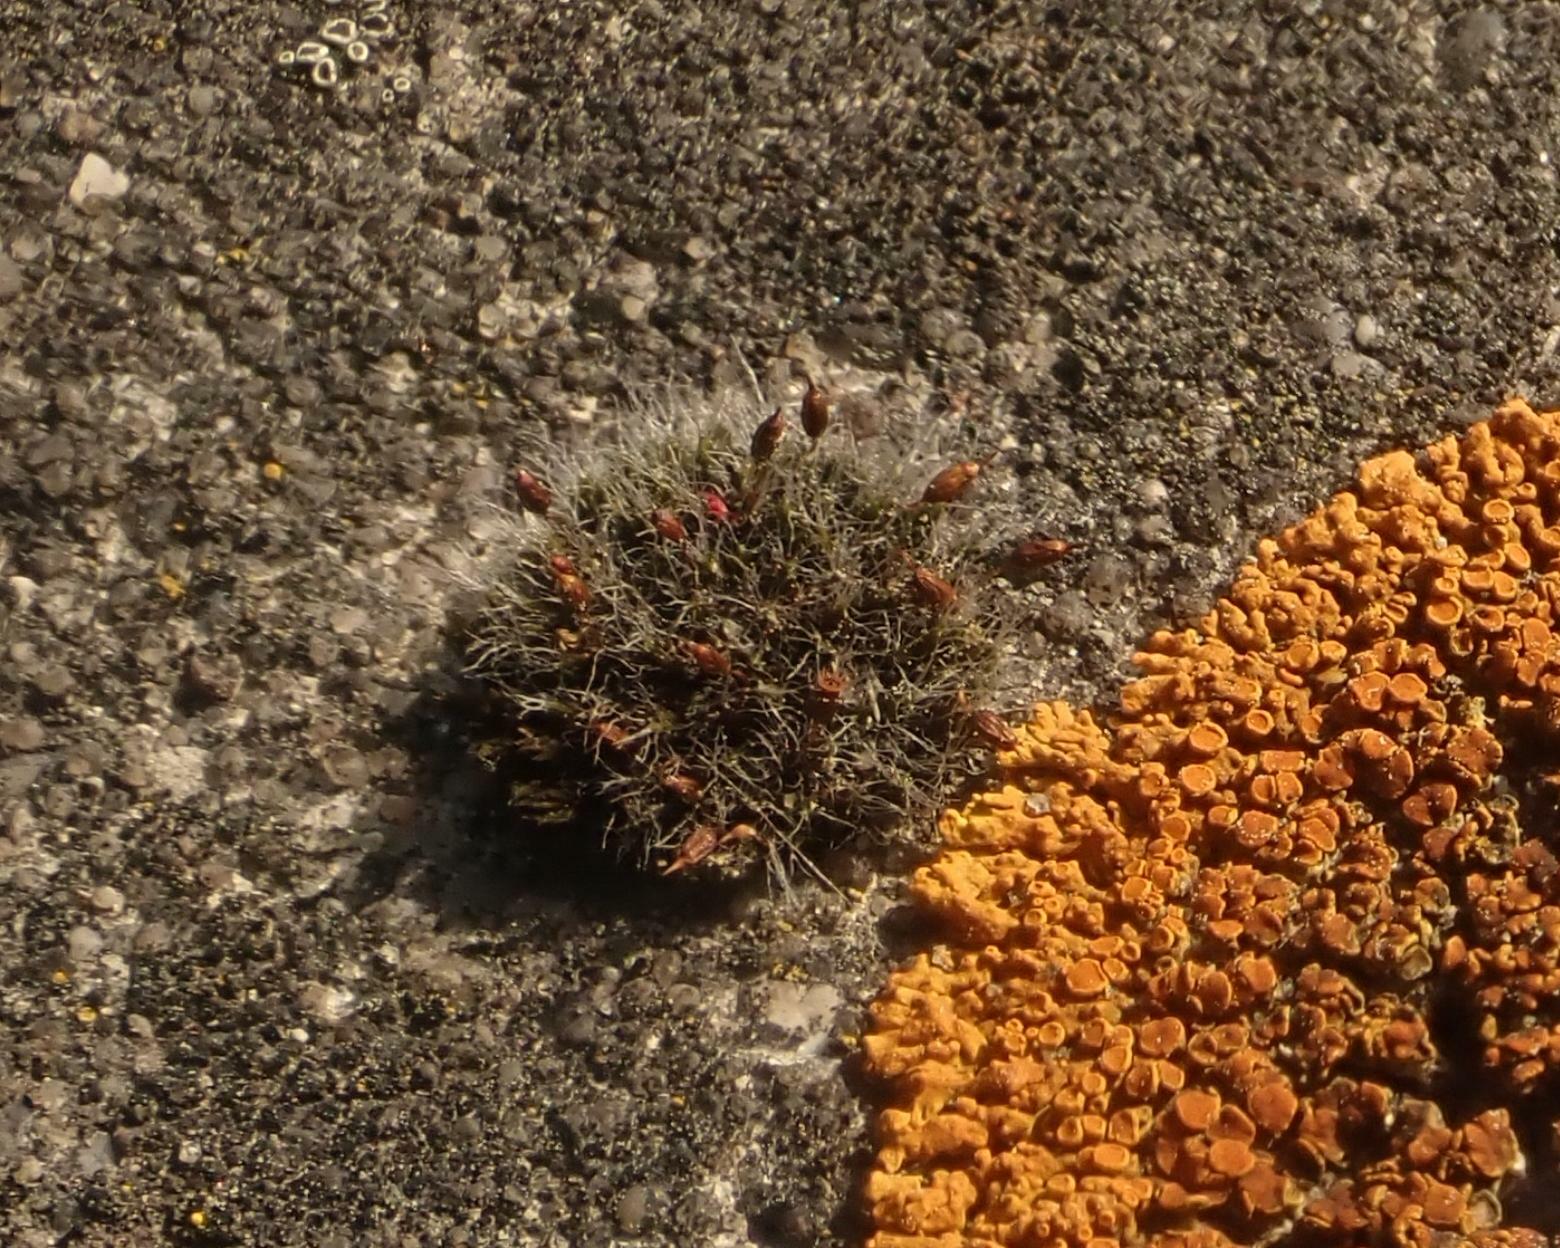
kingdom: Plantae
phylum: Bryophyta
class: Bryopsida
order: Grimmiales
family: Grimmiaceae
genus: Grimmia
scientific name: Grimmia pulvinata
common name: Grey-cushioned grimmia
